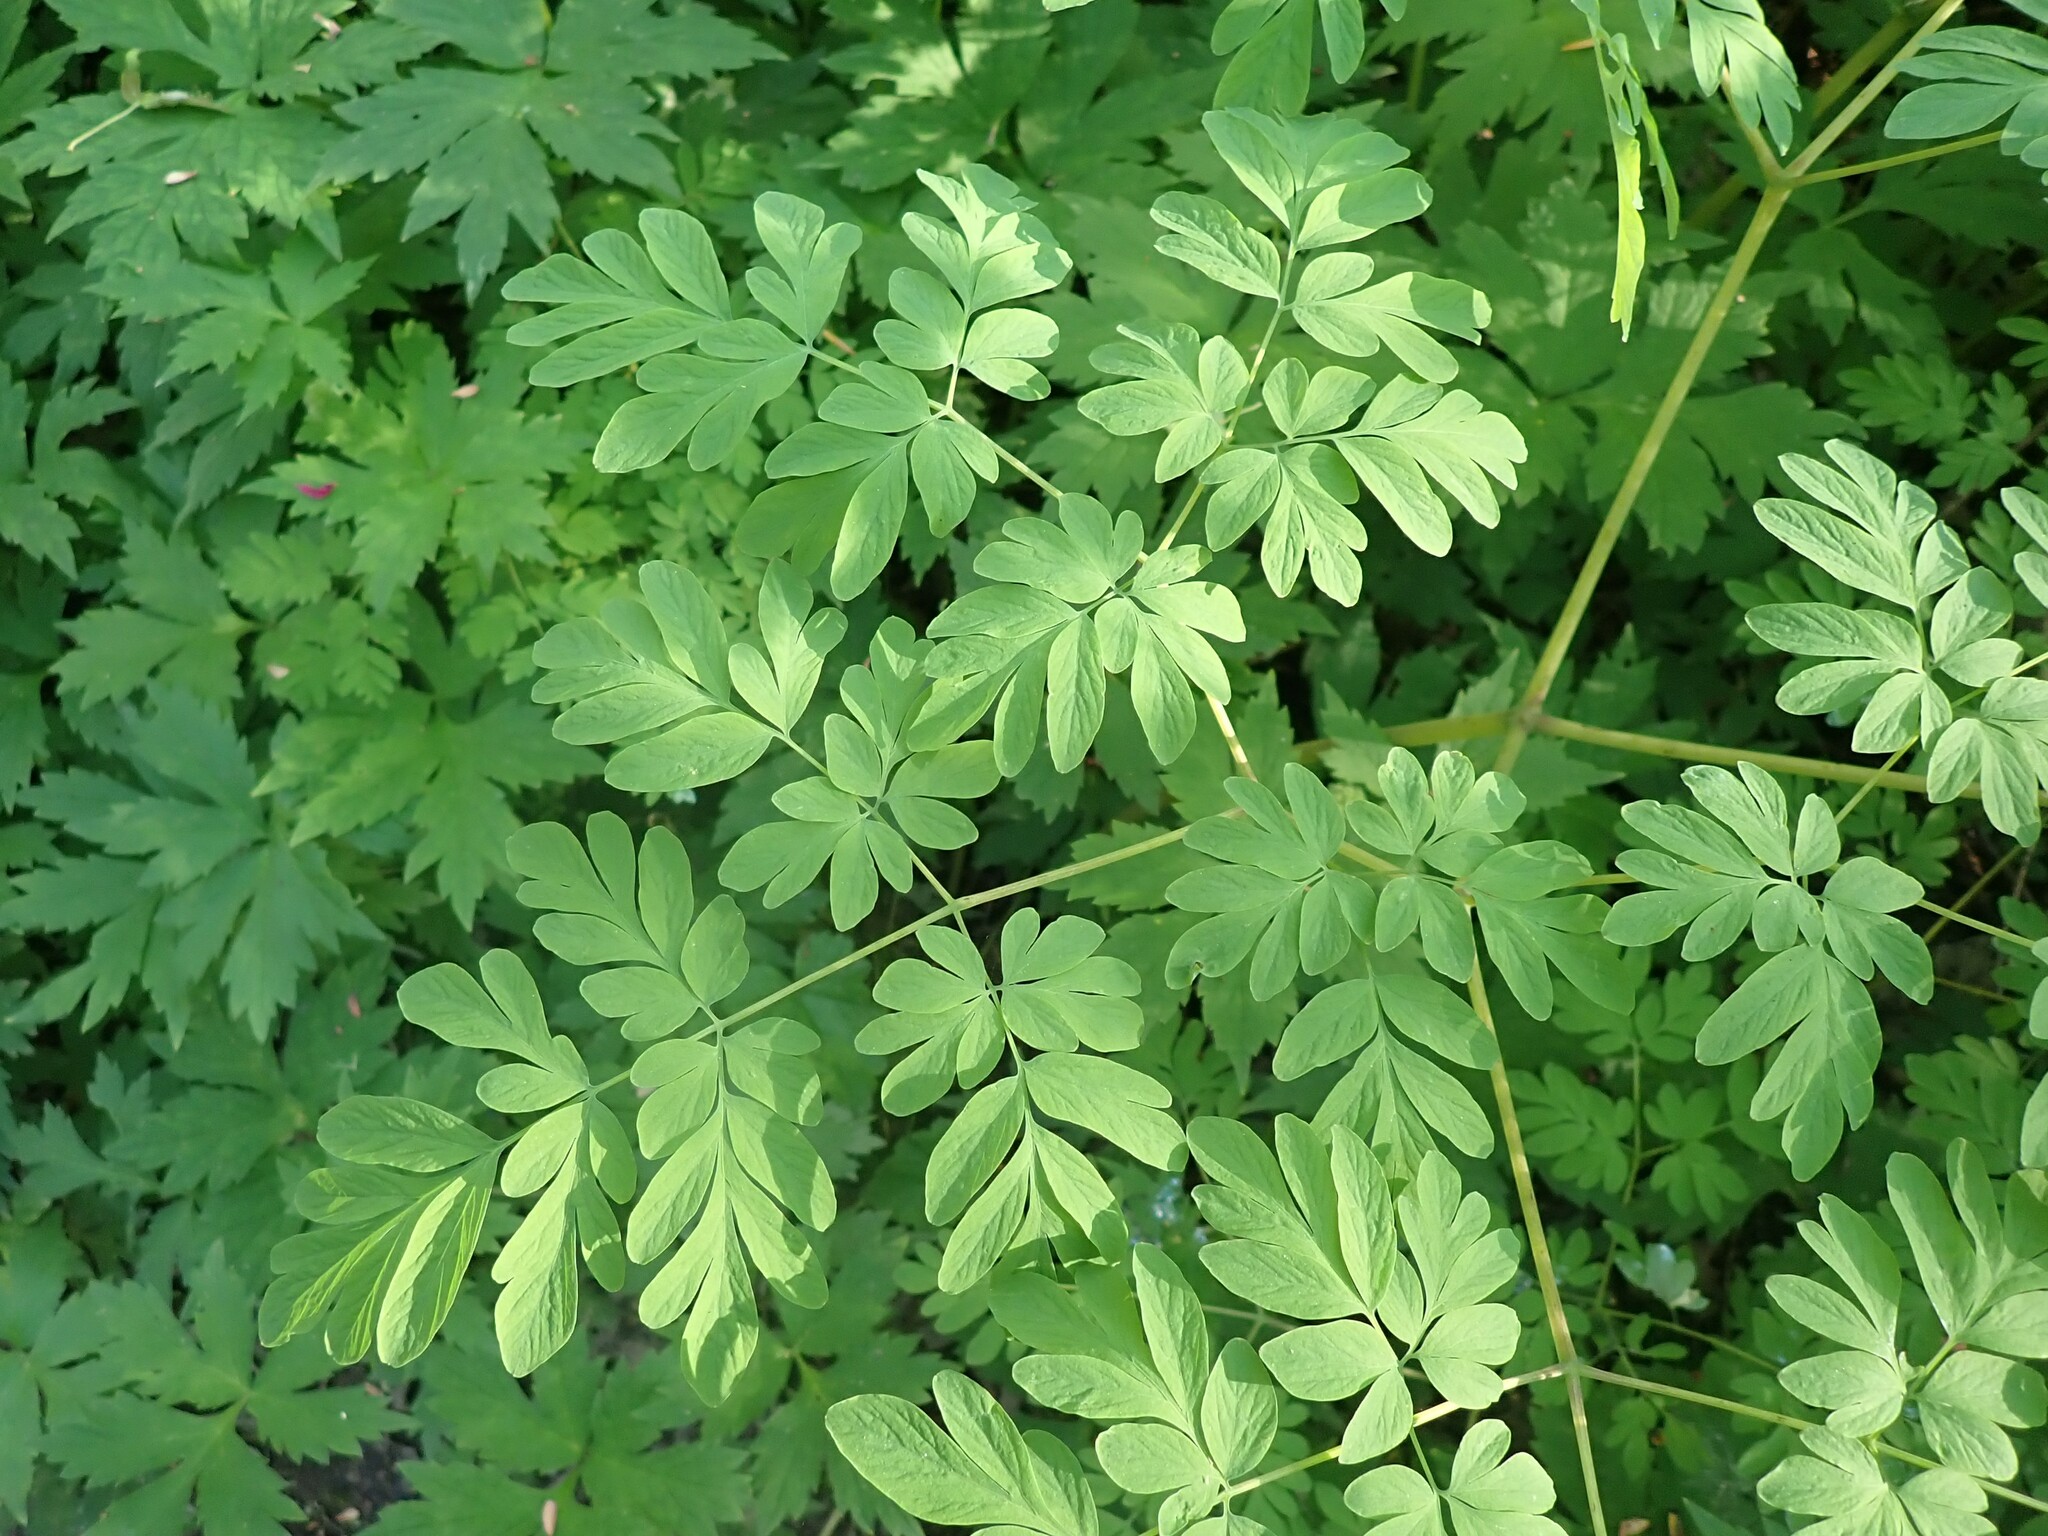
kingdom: Plantae
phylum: Tracheophyta
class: Magnoliopsida
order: Ranunculales
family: Papaveraceae
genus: Corydalis
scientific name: Corydalis scouleri
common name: Scouler's corydalis
